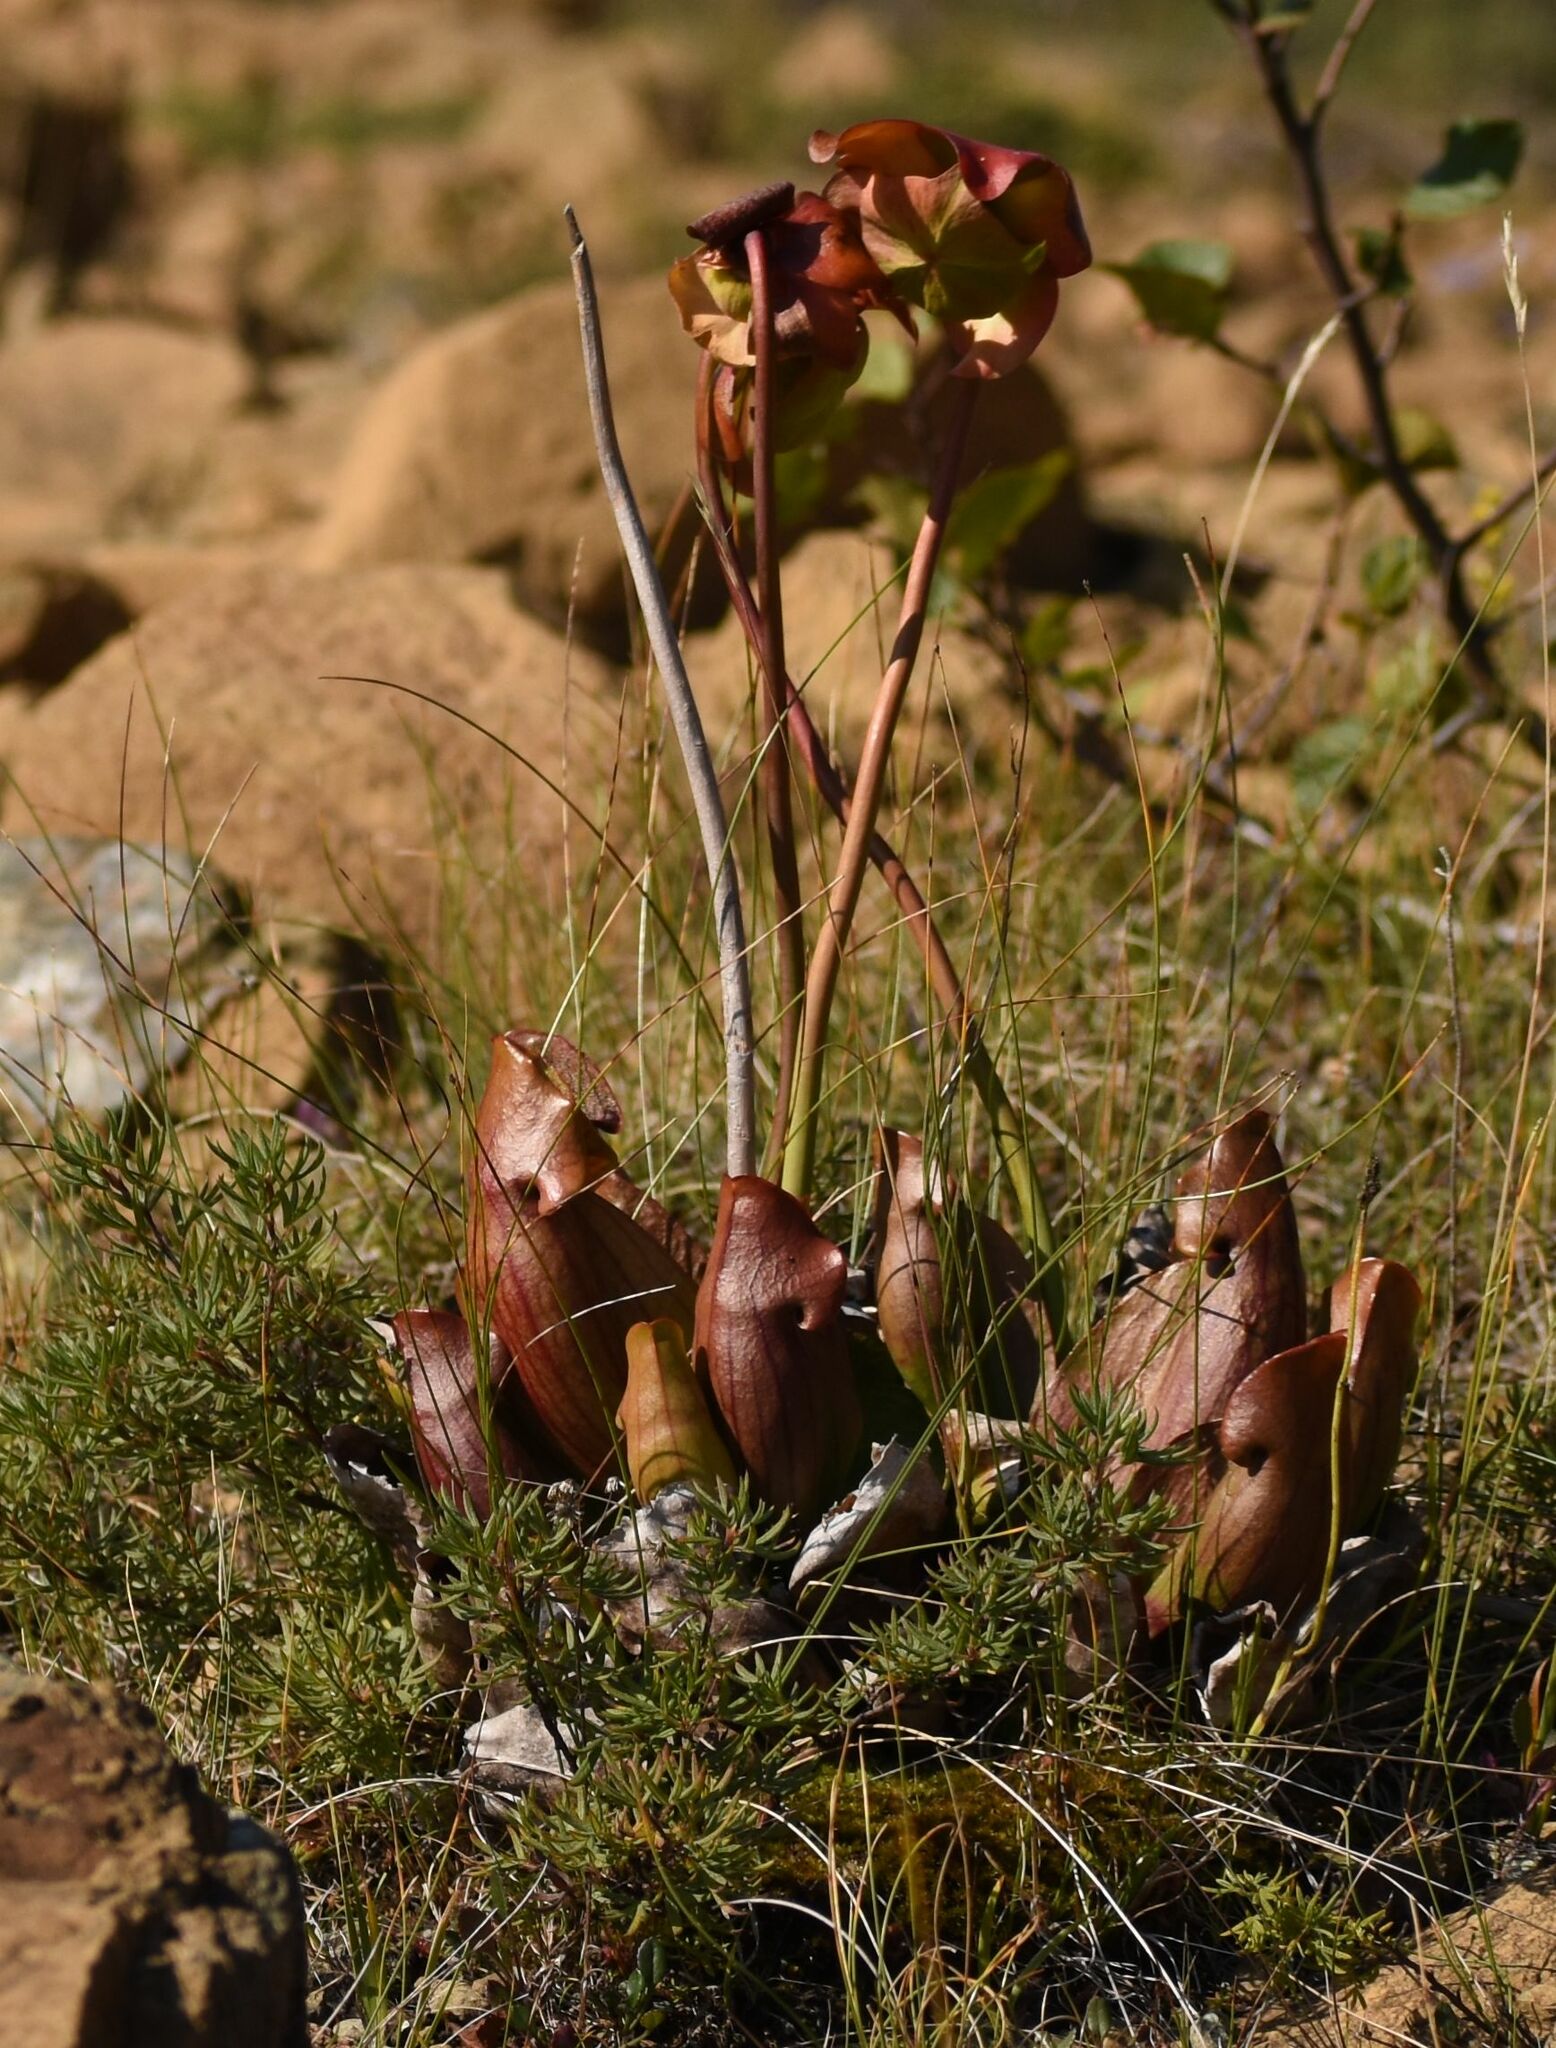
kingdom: Plantae
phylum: Tracheophyta
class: Magnoliopsida
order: Ericales
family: Sarraceniaceae
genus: Sarracenia
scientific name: Sarracenia purpurea
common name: Pitcherplant
